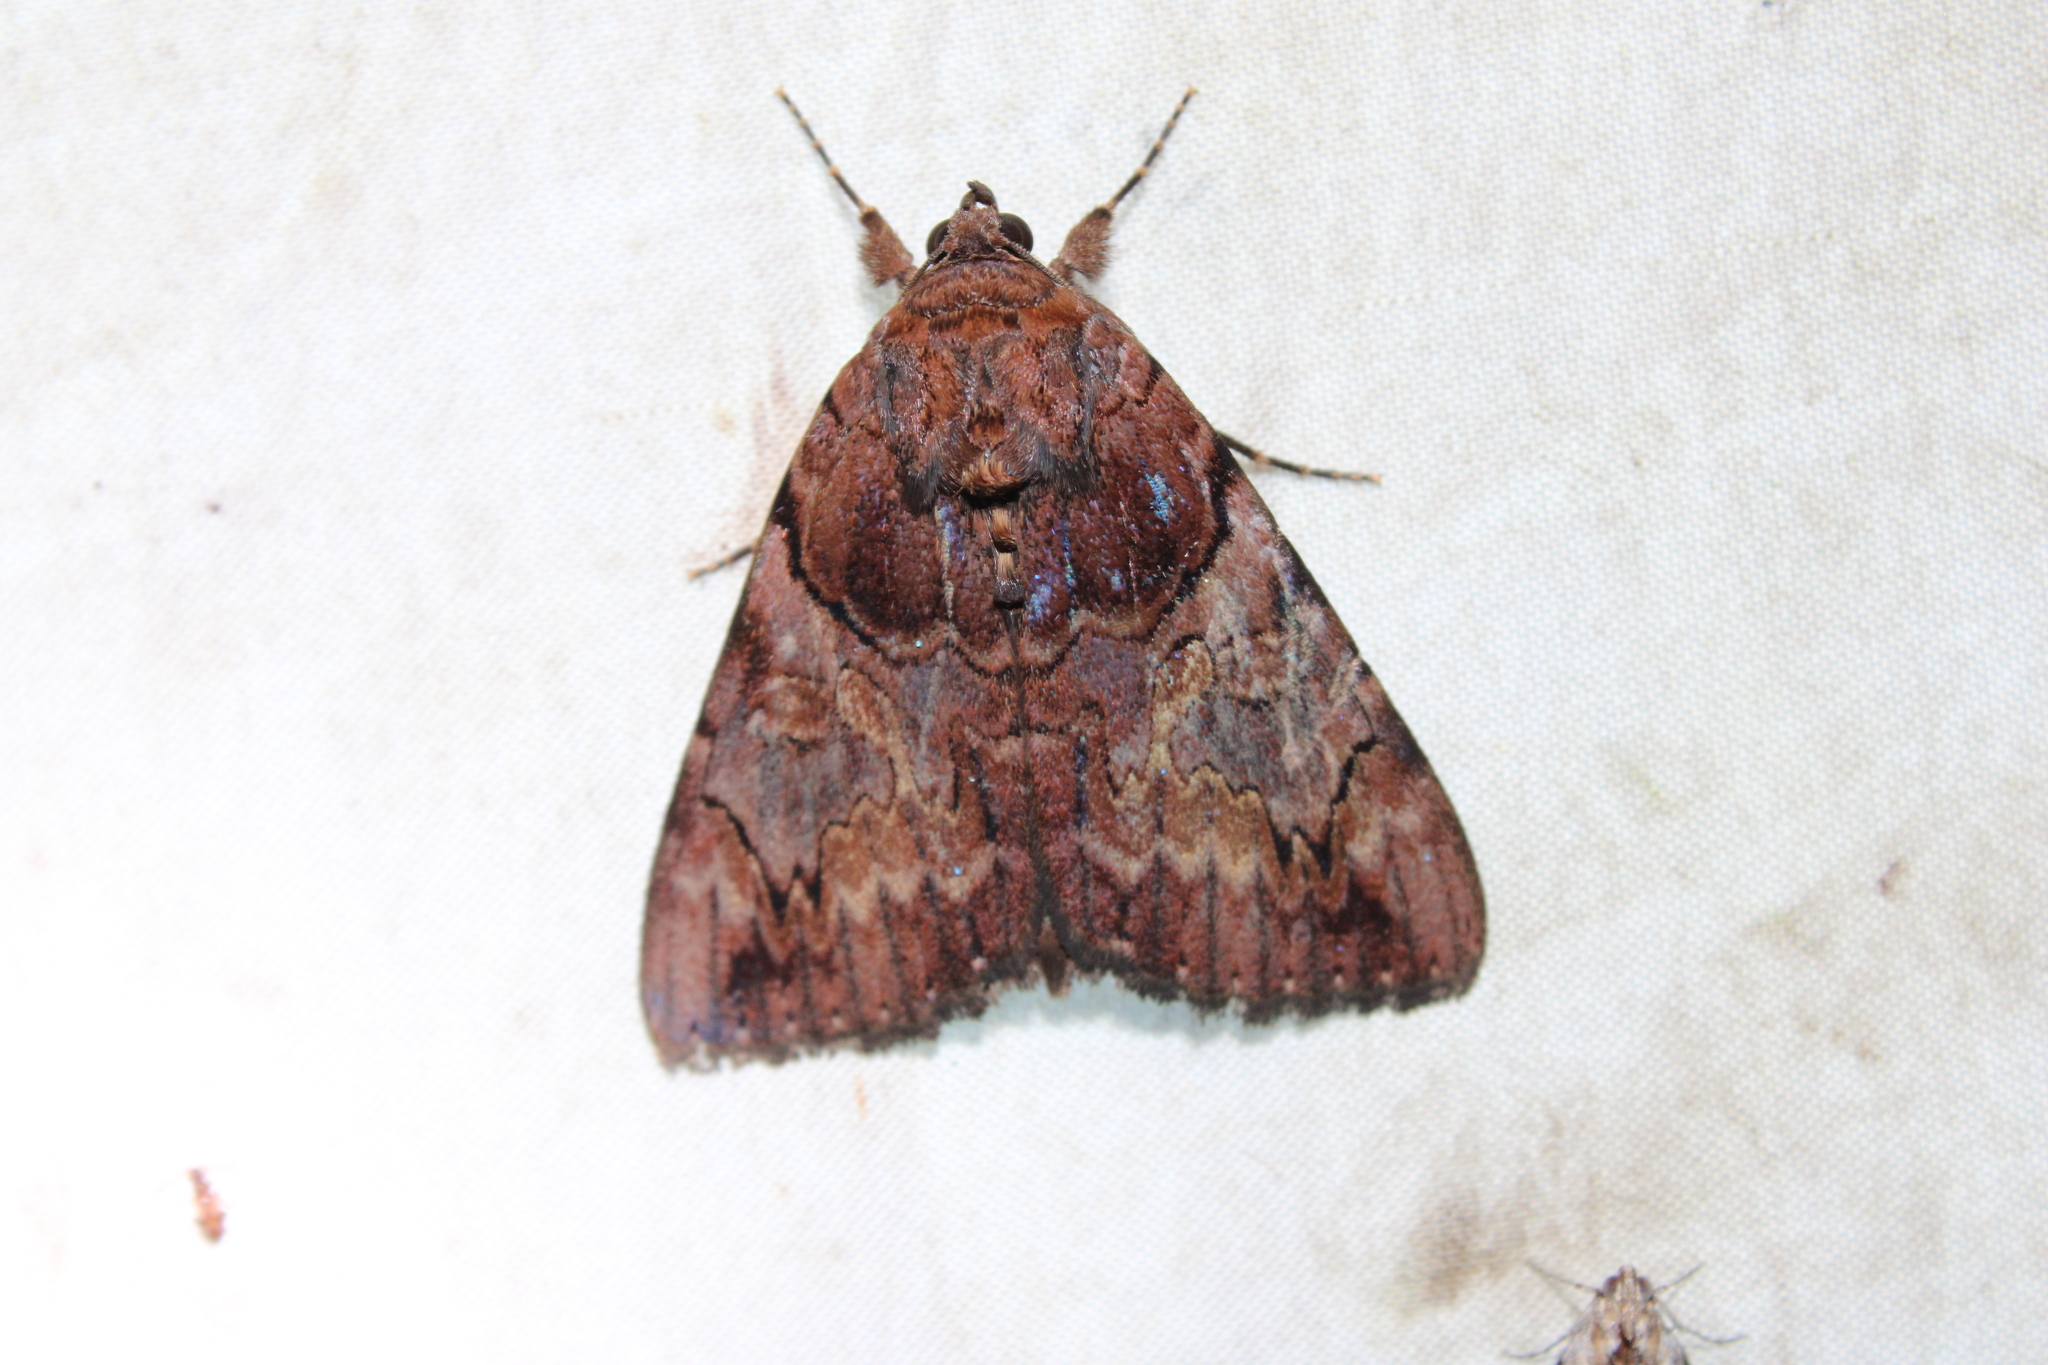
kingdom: Animalia
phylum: Arthropoda
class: Insecta
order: Lepidoptera
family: Erebidae
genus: Catocala
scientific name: Catocala muliercula
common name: The little wife underwing
